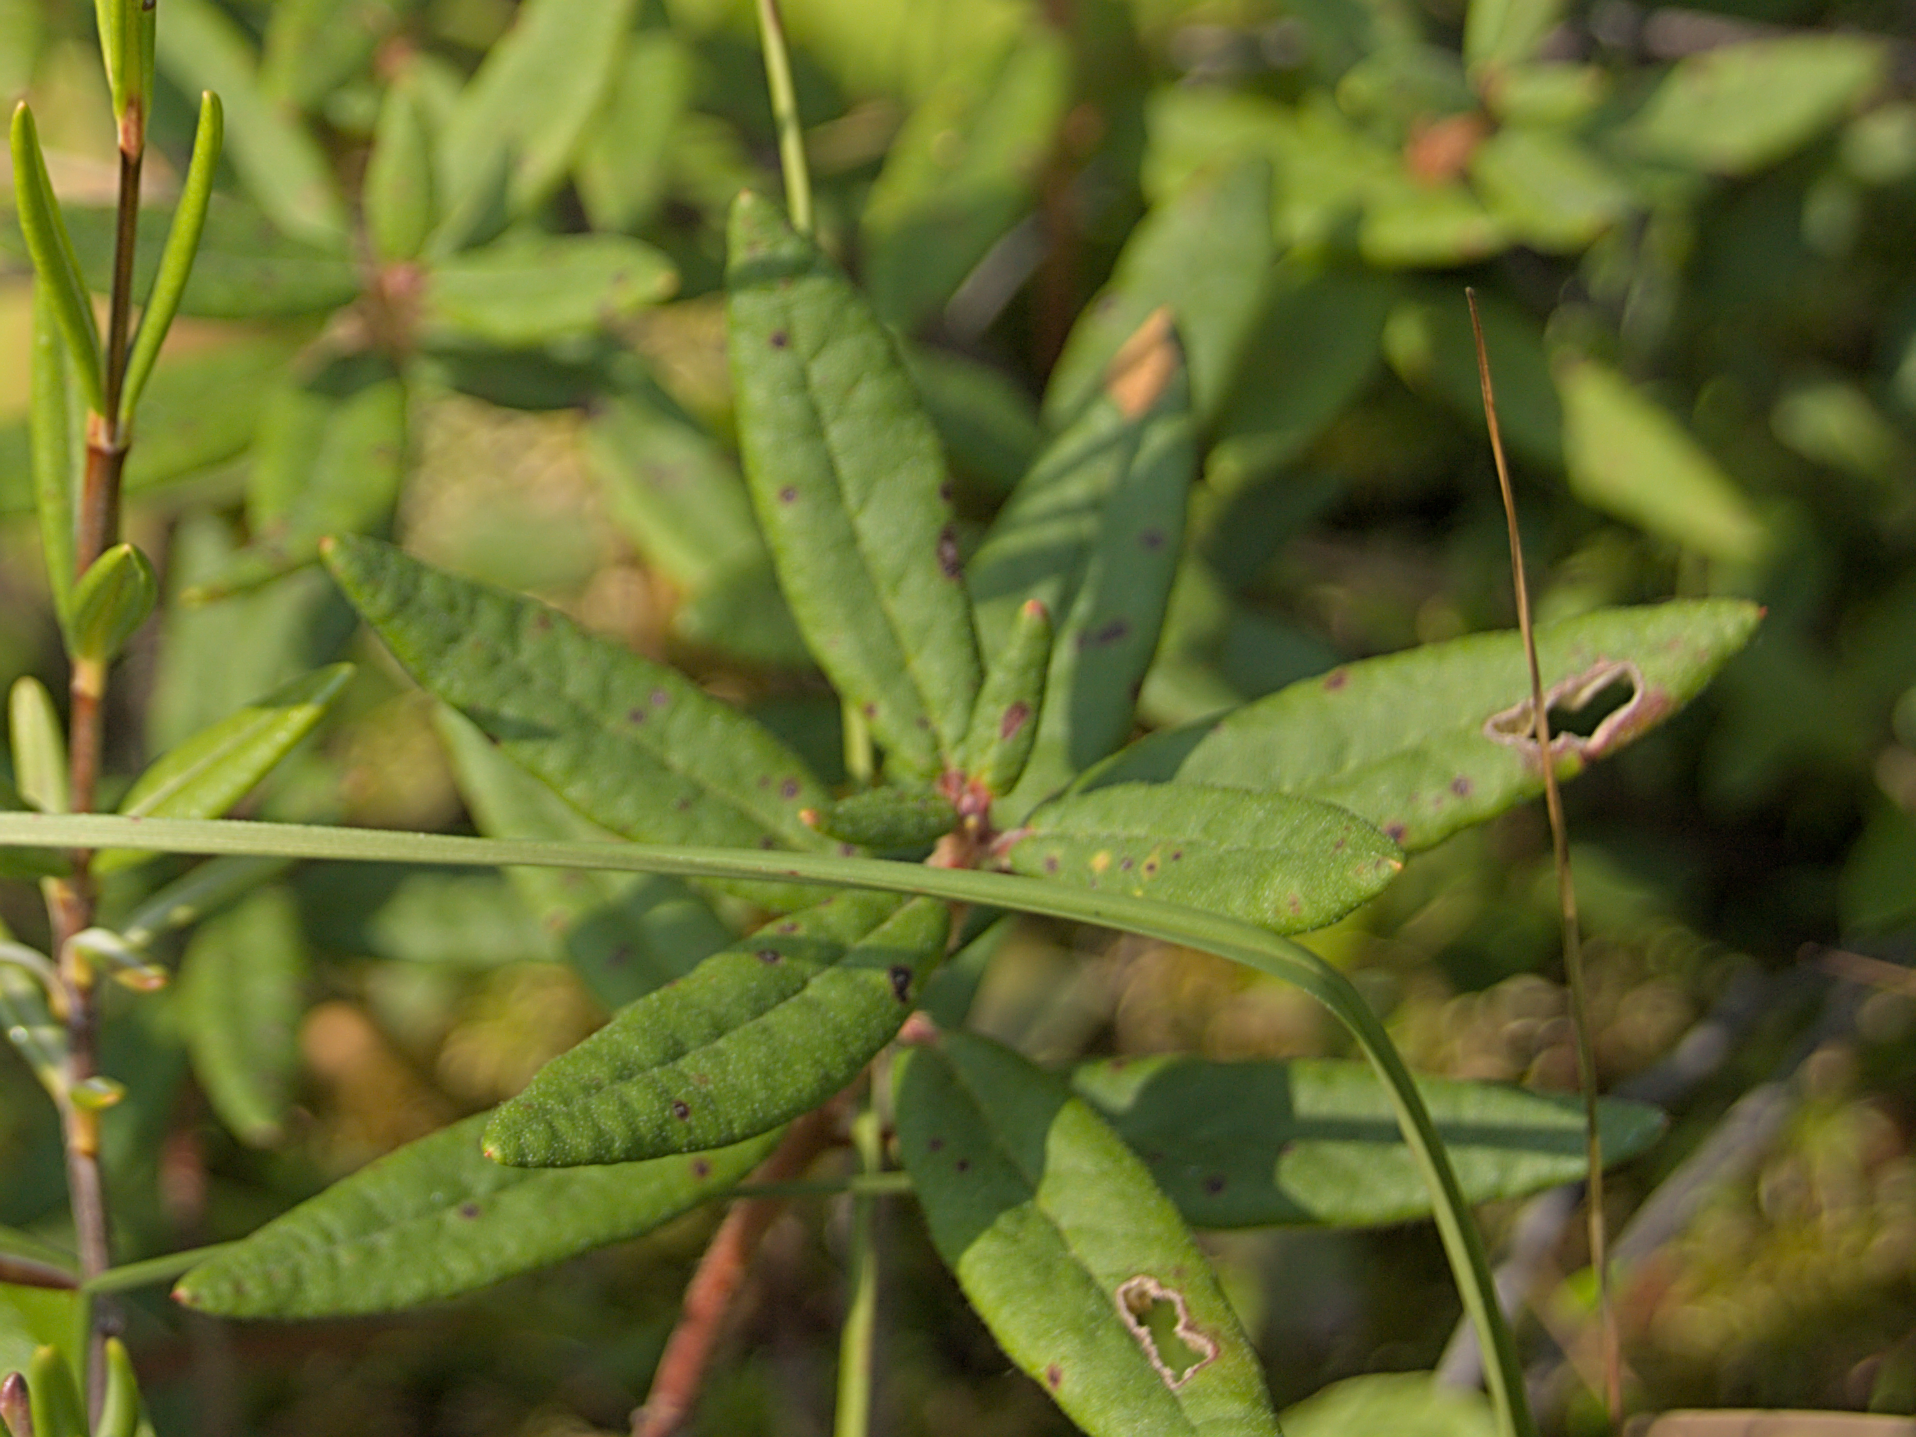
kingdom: Plantae
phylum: Tracheophyta
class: Magnoliopsida
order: Ericales
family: Ericaceae
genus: Rhododendron
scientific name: Rhododendron groenlandicum
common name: Bog labrador tea
